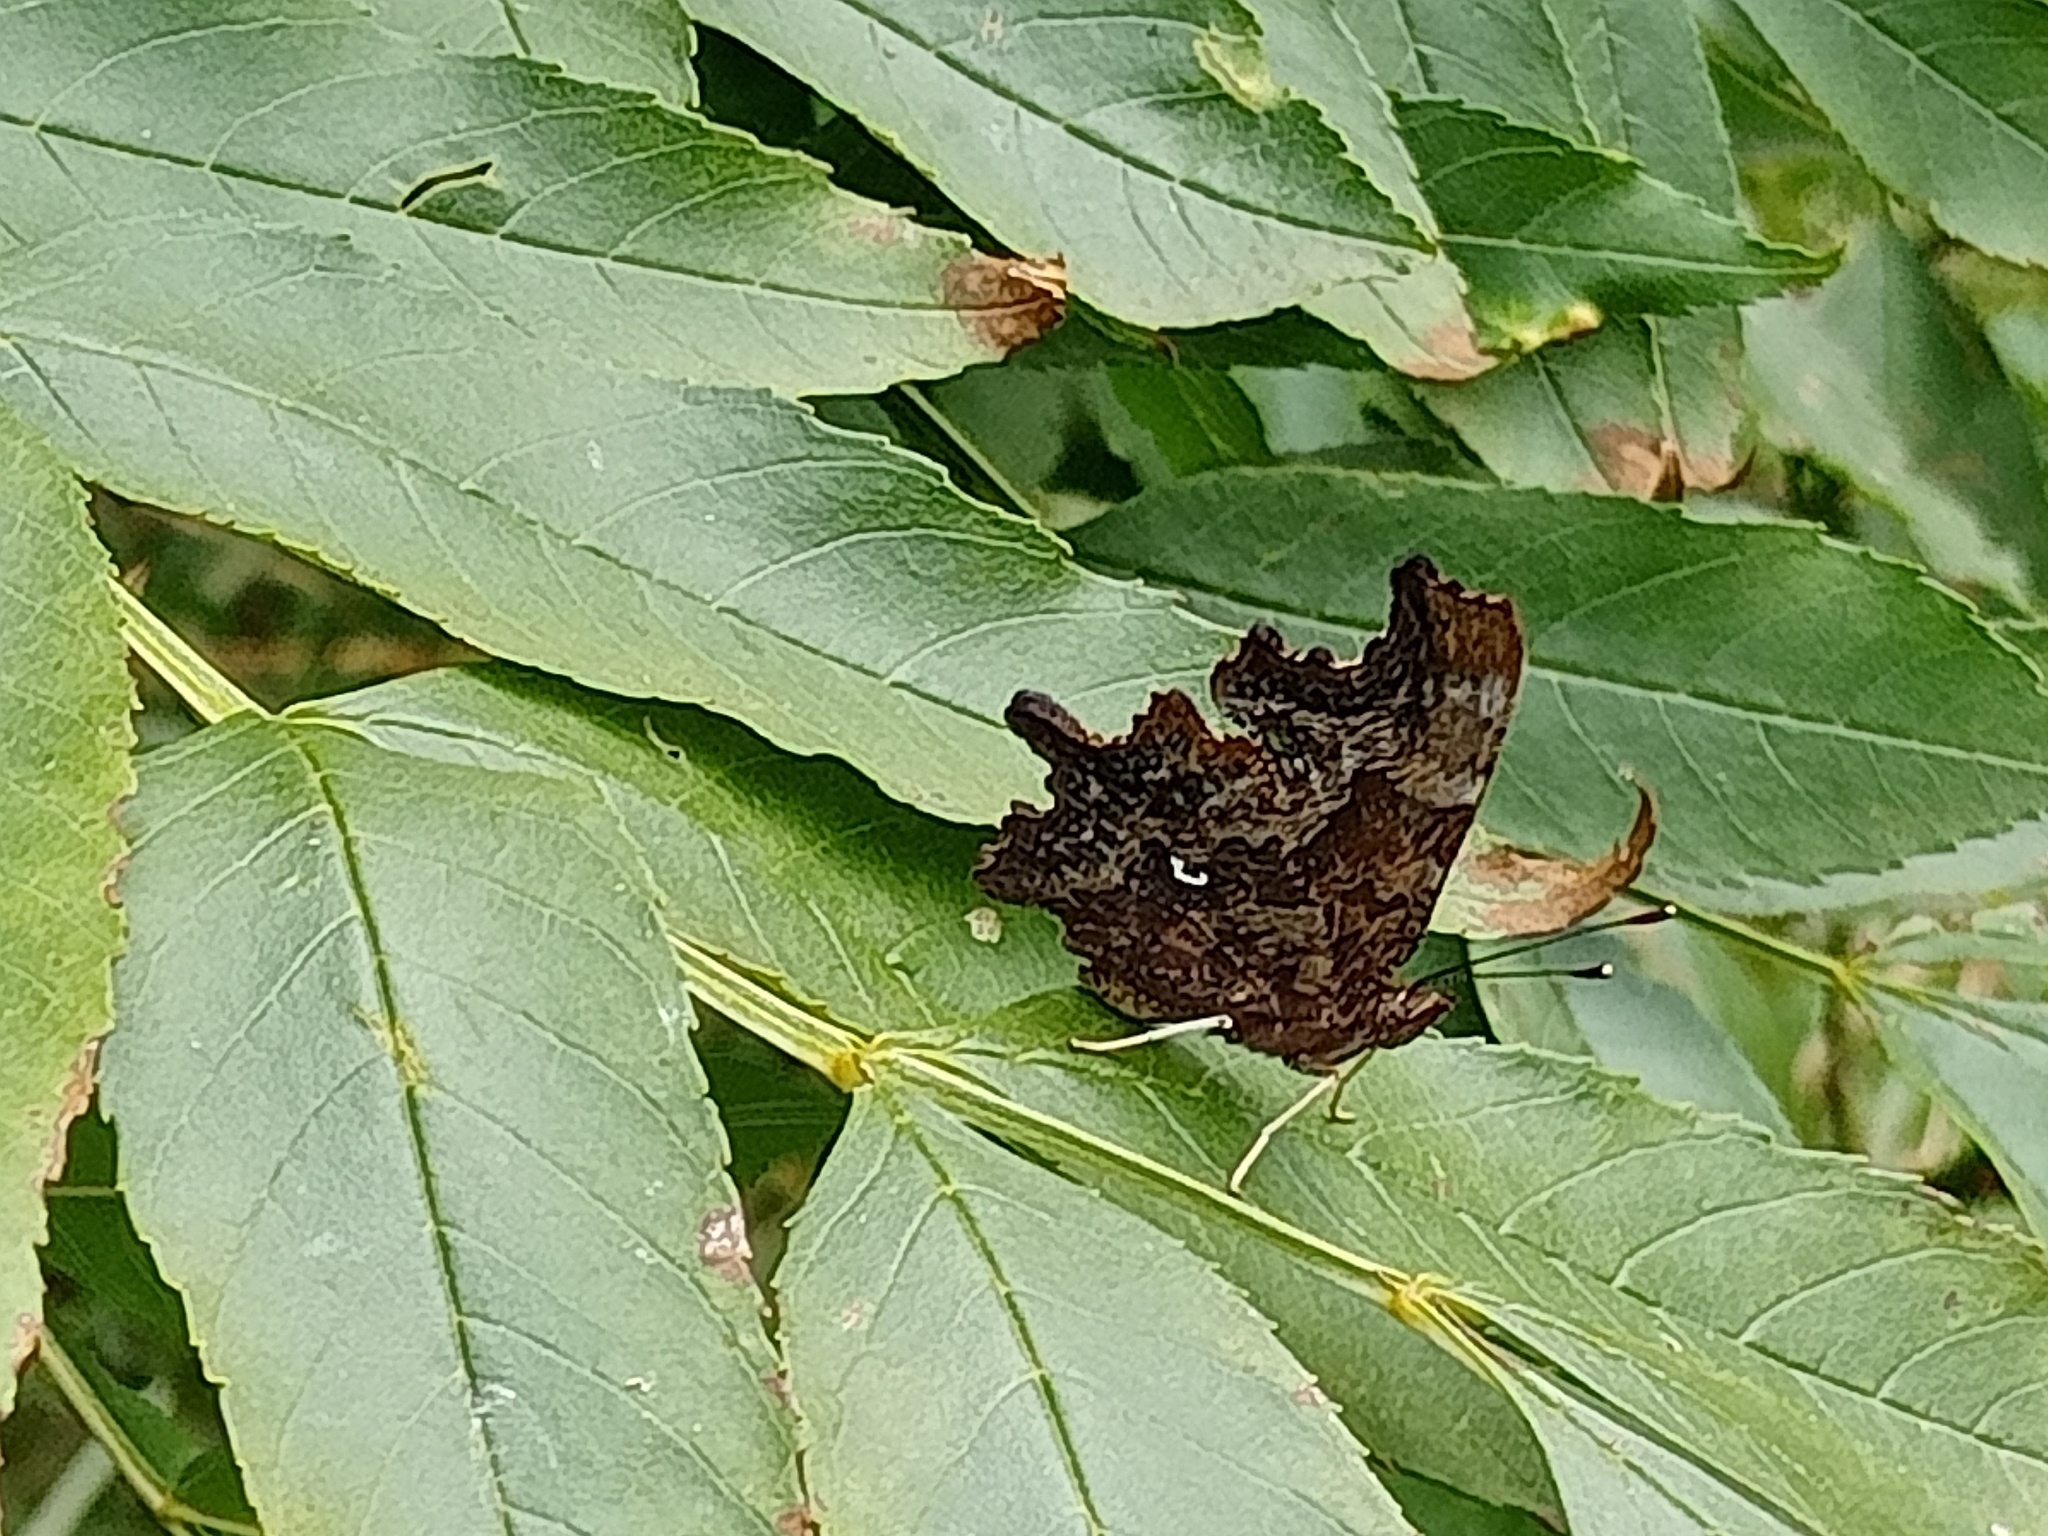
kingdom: Animalia
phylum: Arthropoda
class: Insecta
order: Lepidoptera
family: Nymphalidae
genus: Polygonia
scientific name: Polygonia c-album
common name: Comma
